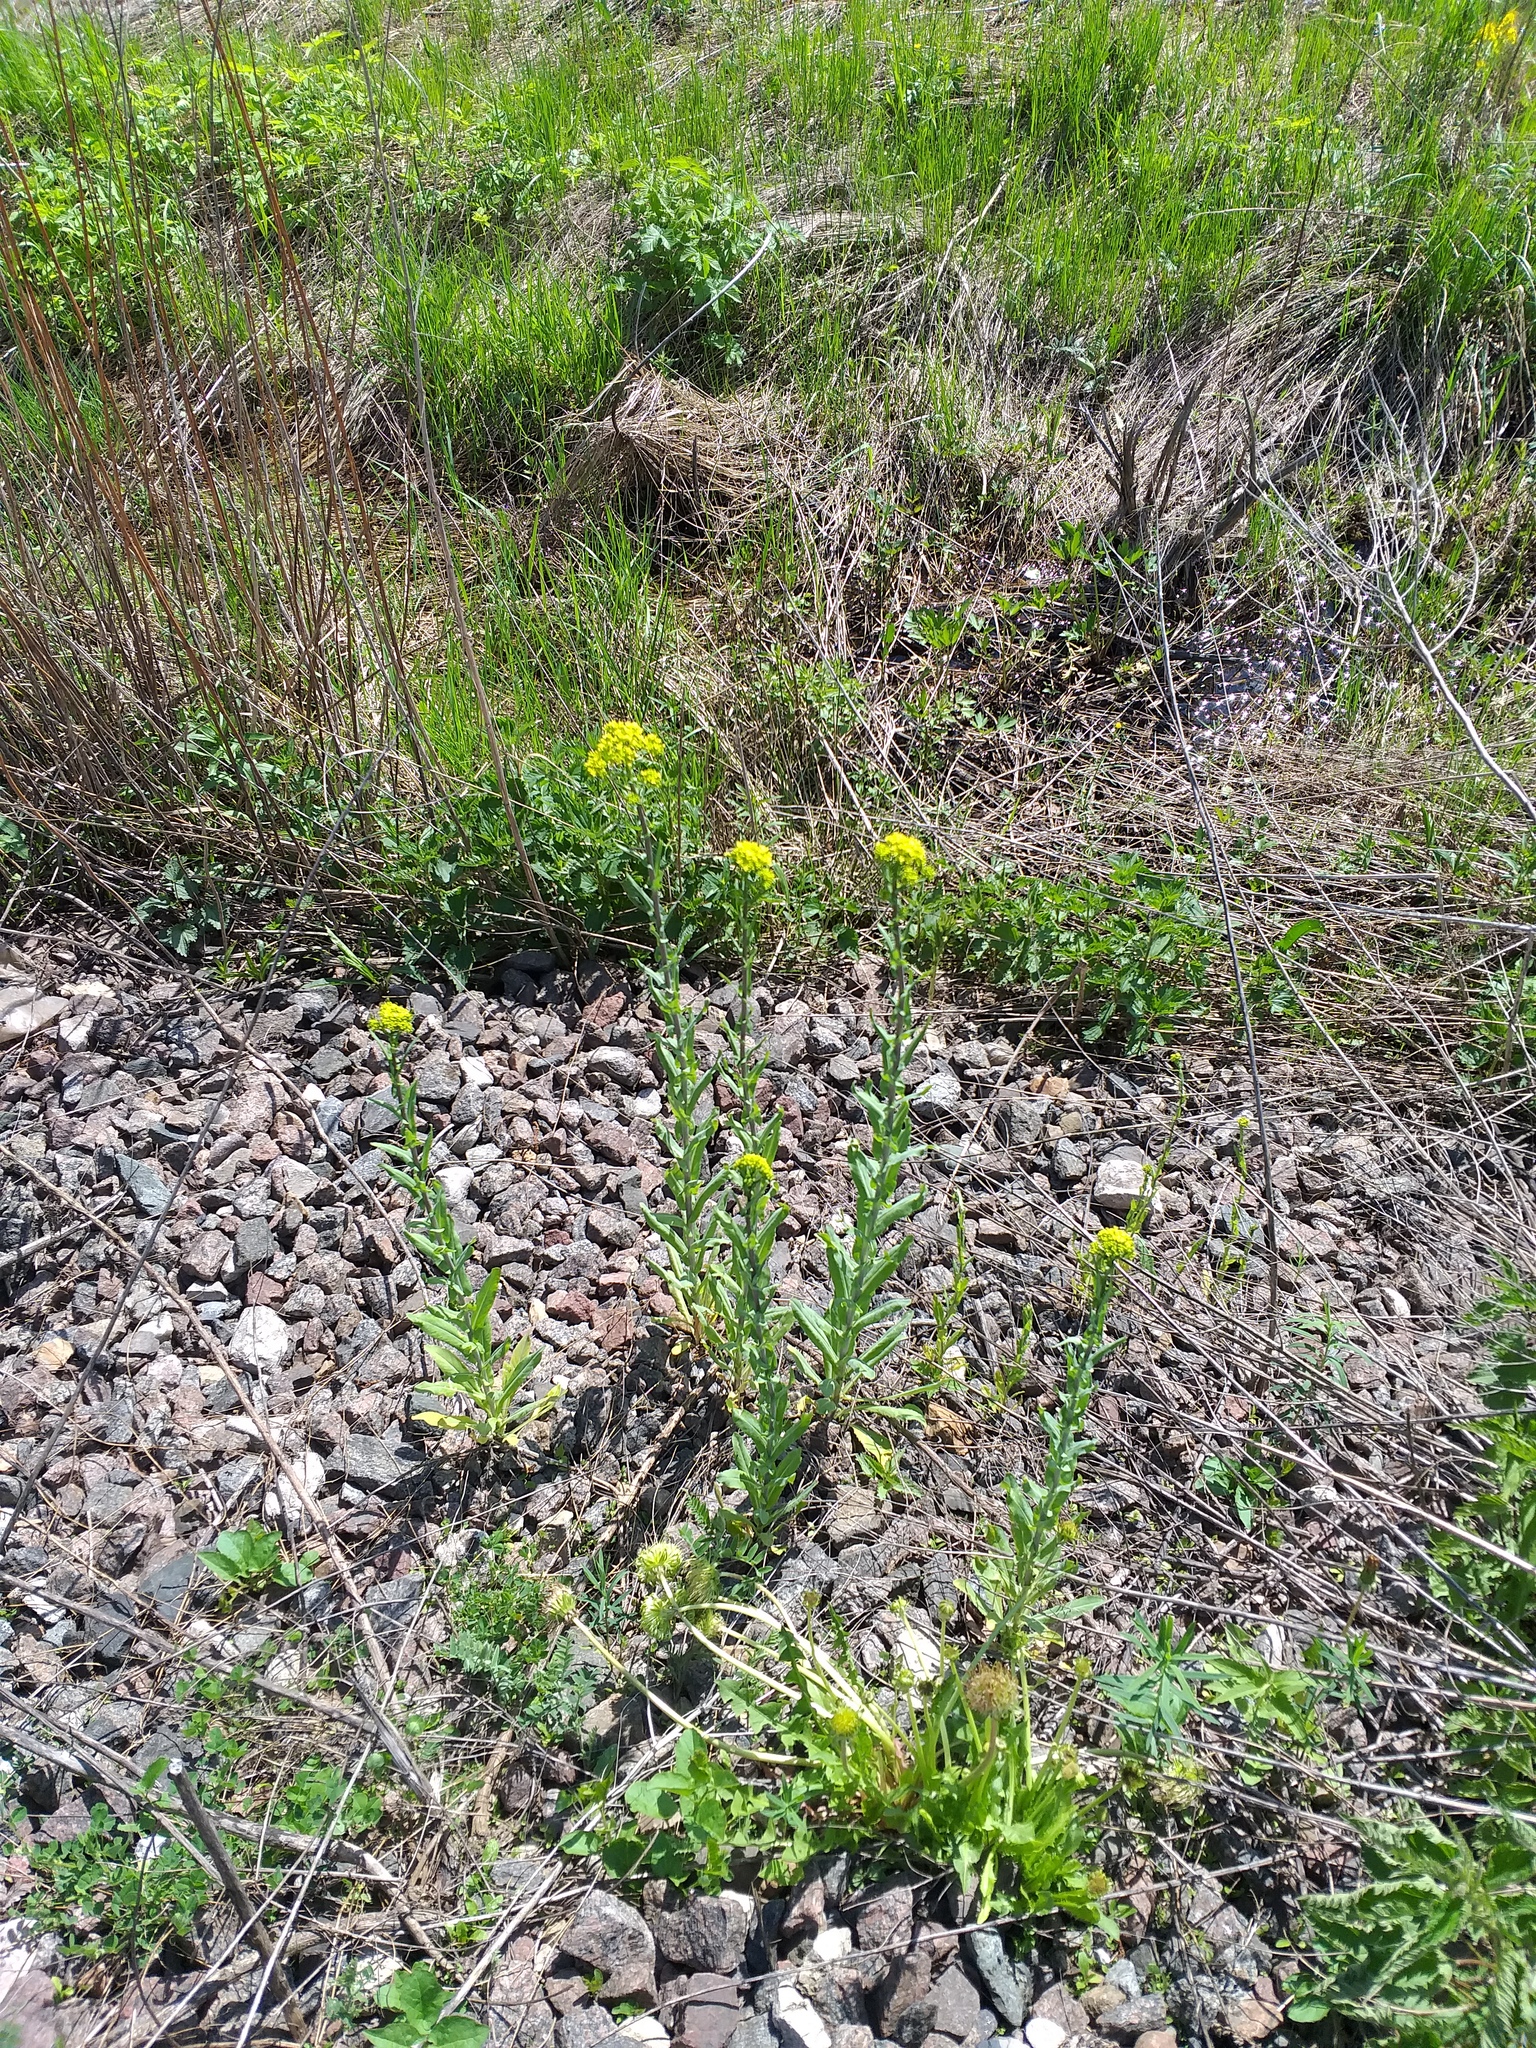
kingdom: Plantae
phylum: Tracheophyta
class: Magnoliopsida
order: Brassicales
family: Brassicaceae
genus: Isatis
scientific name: Isatis costata
